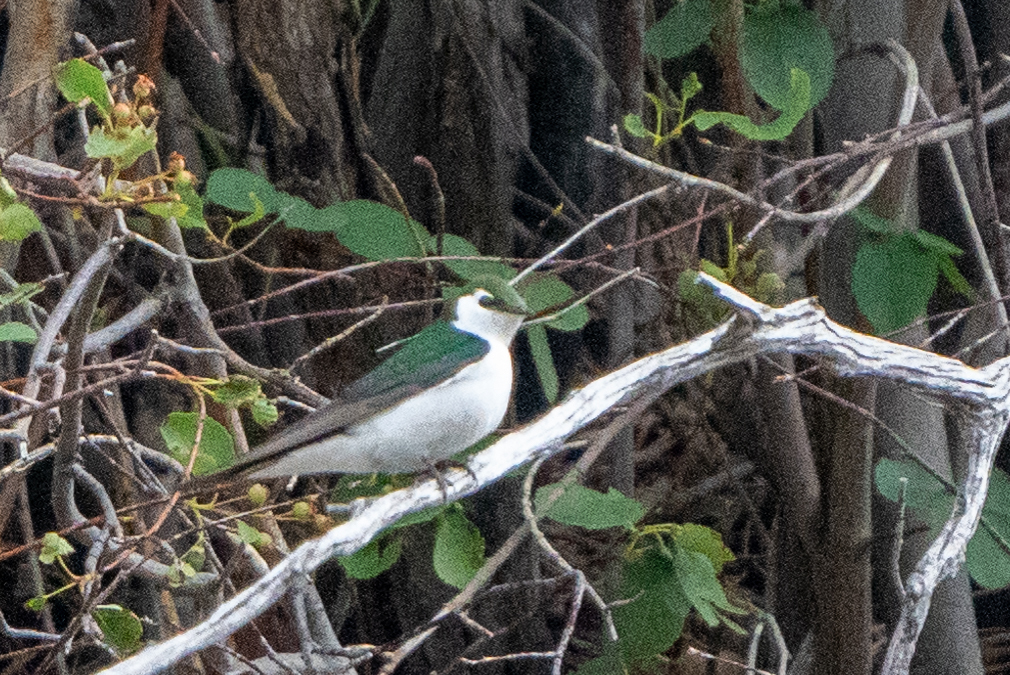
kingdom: Animalia
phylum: Chordata
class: Aves
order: Passeriformes
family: Hirundinidae
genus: Tachycineta
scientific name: Tachycineta thalassina
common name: Violet-green swallow
